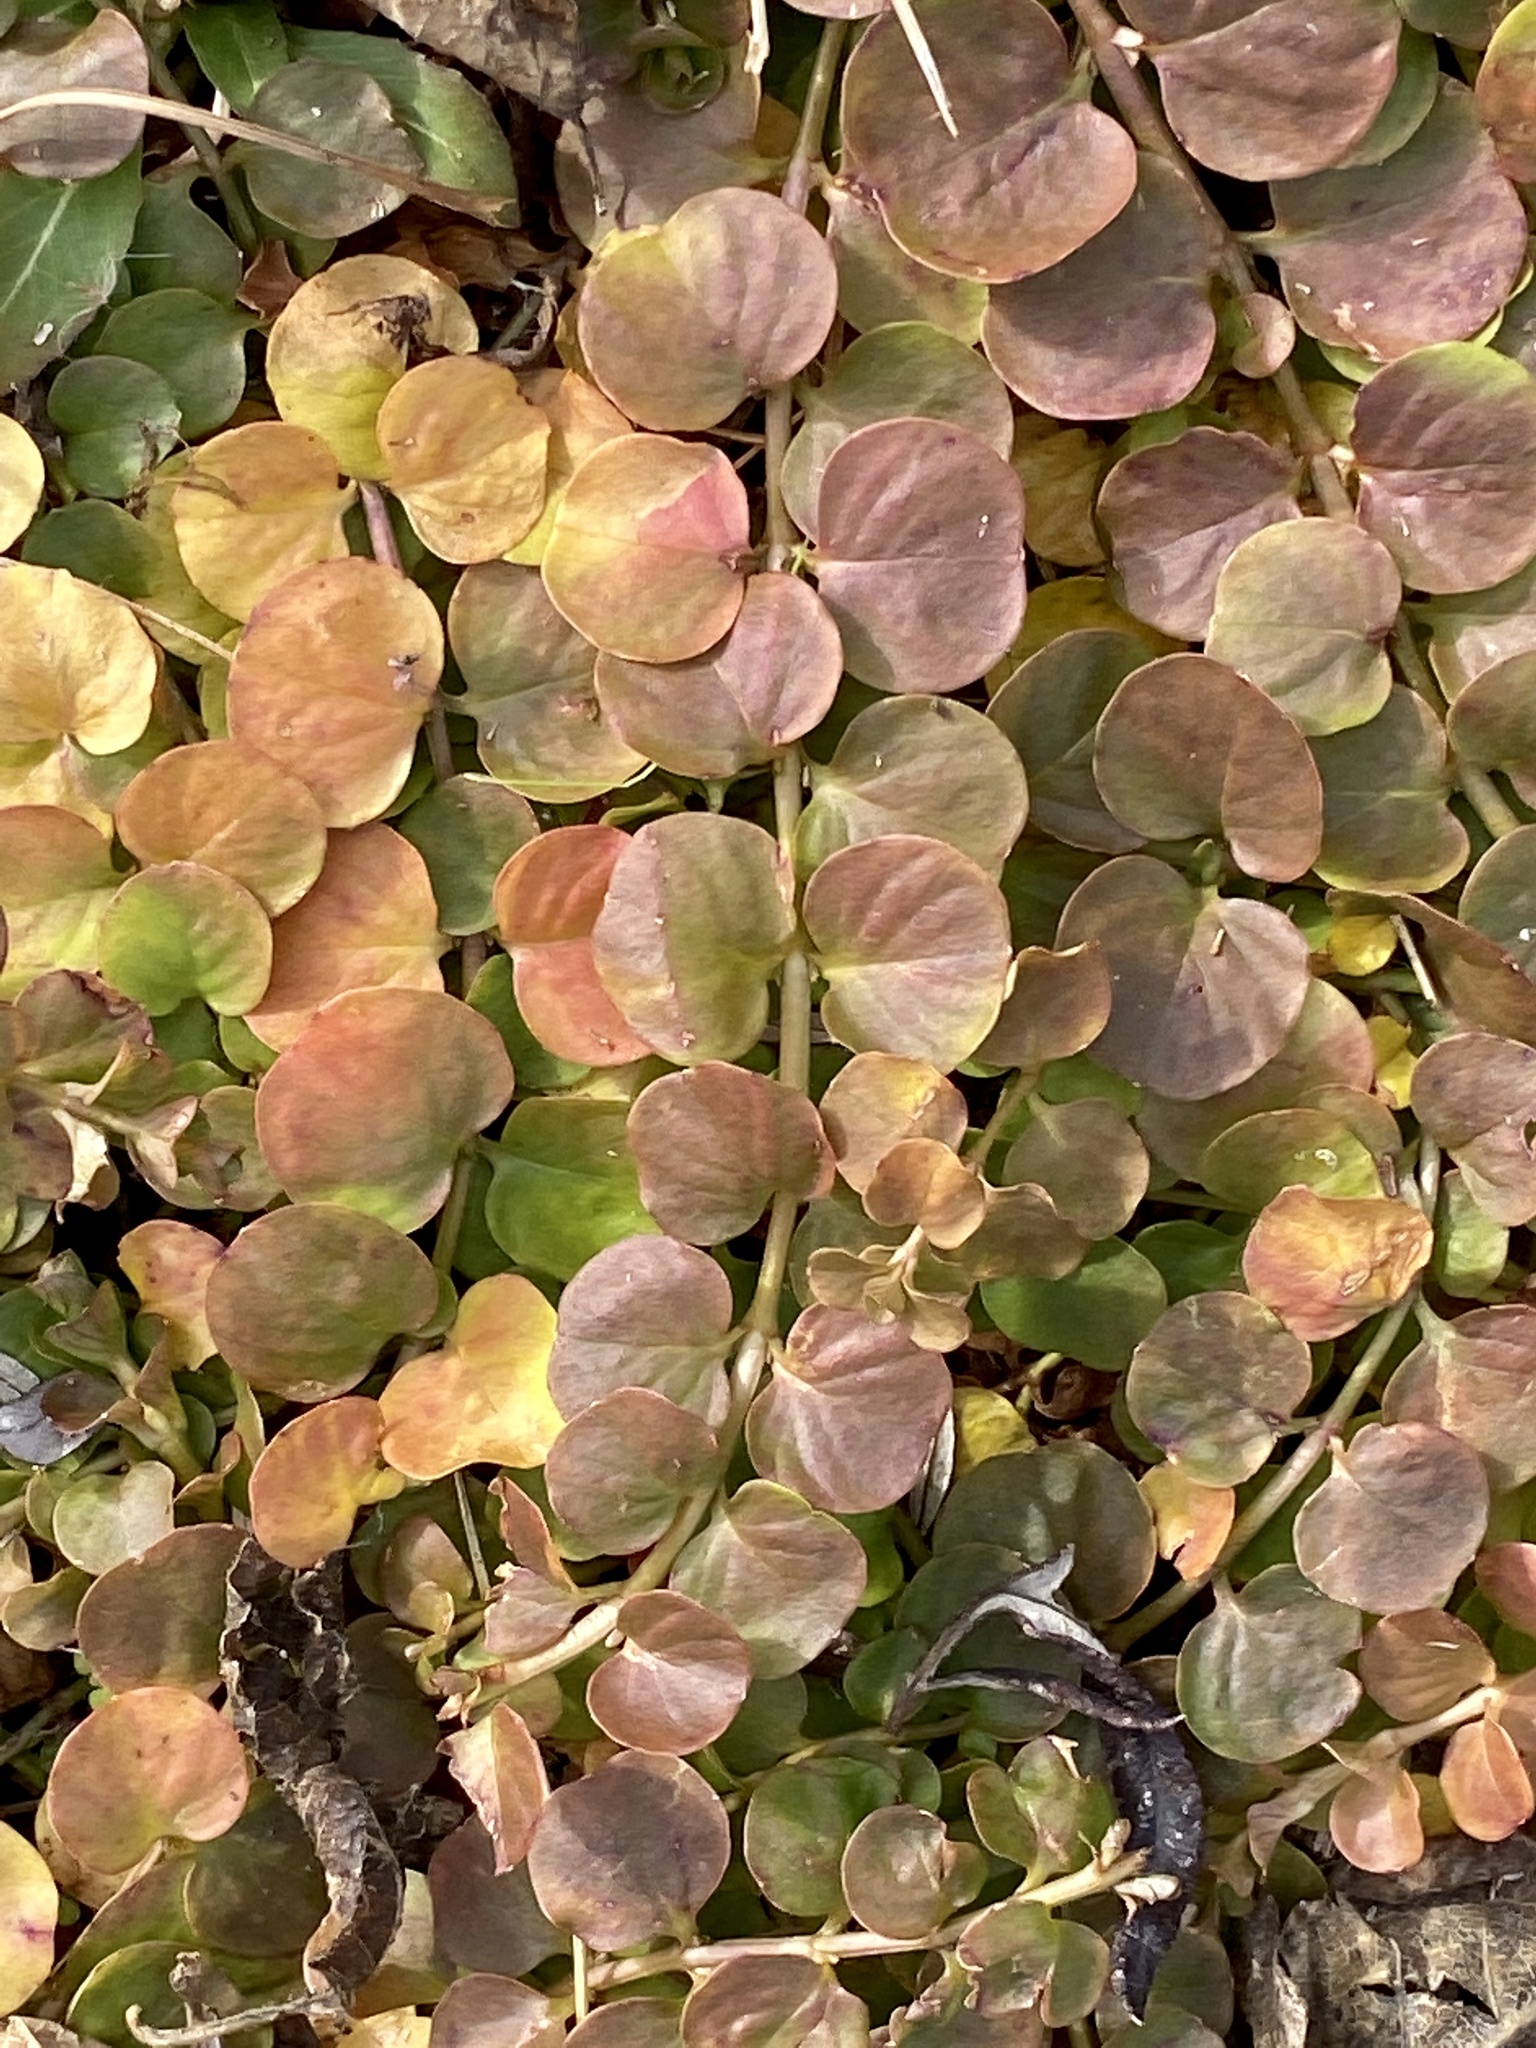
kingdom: Plantae
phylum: Tracheophyta
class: Magnoliopsida
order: Ericales
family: Primulaceae
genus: Lysimachia
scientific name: Lysimachia nummularia
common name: Moneywort
